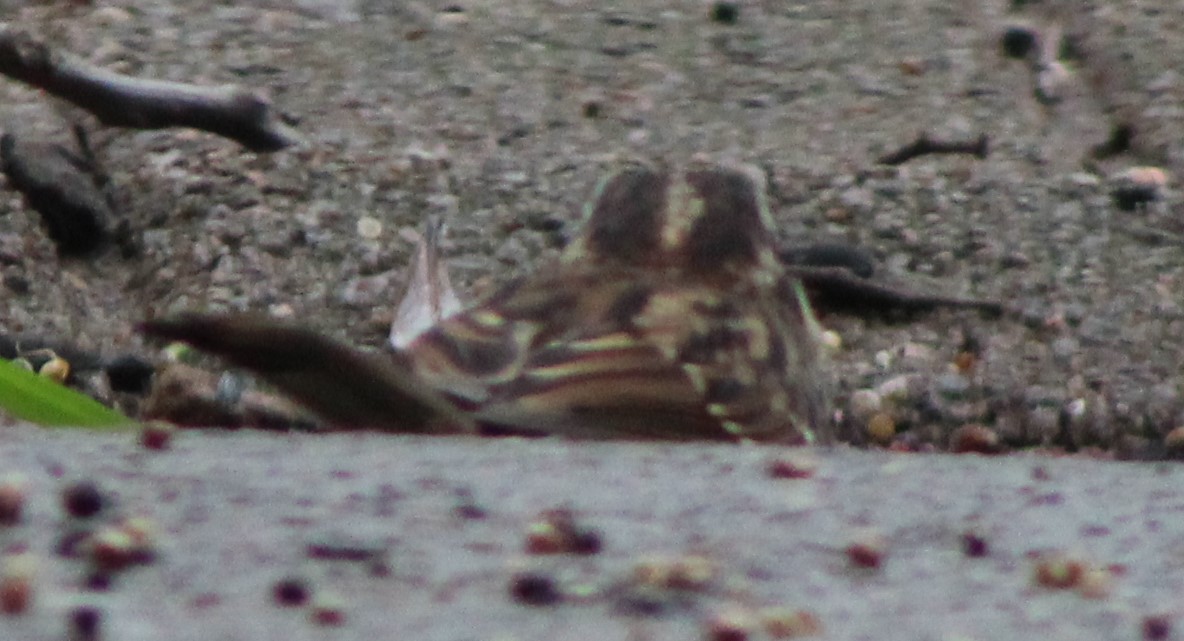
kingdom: Animalia
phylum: Chordata
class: Aves
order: Passeriformes
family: Passerellidae
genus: Zonotrichia
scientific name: Zonotrichia albicollis
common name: White-throated sparrow
